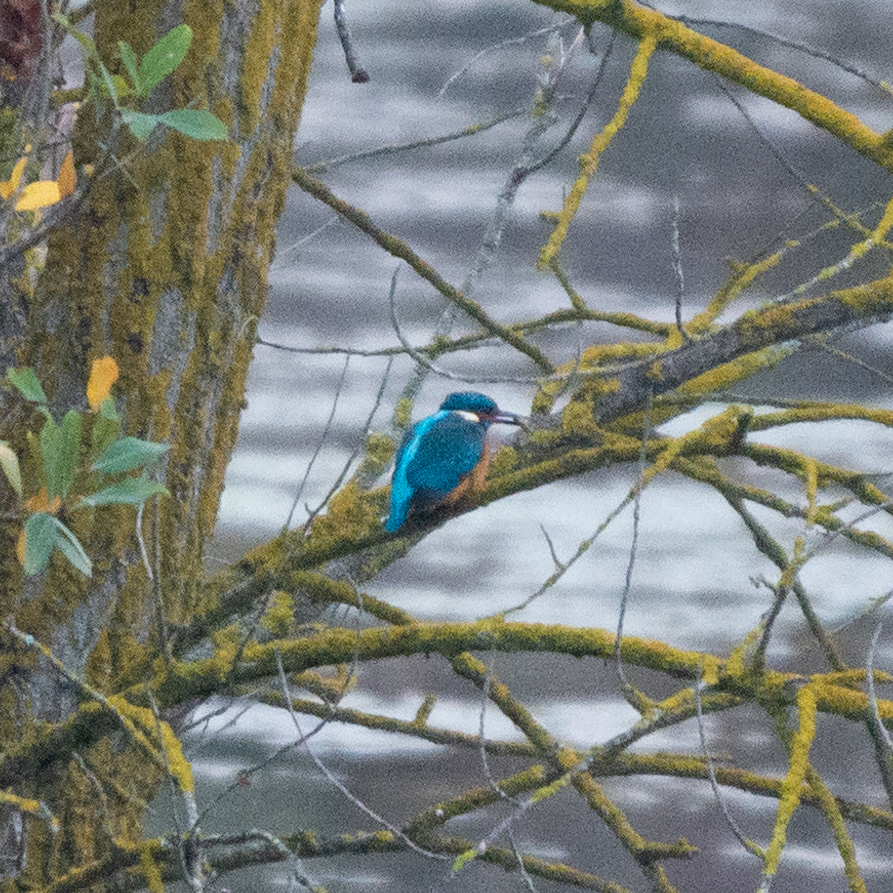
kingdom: Animalia
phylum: Chordata
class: Aves
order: Coraciiformes
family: Alcedinidae
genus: Alcedo
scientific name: Alcedo atthis
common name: Common kingfisher
